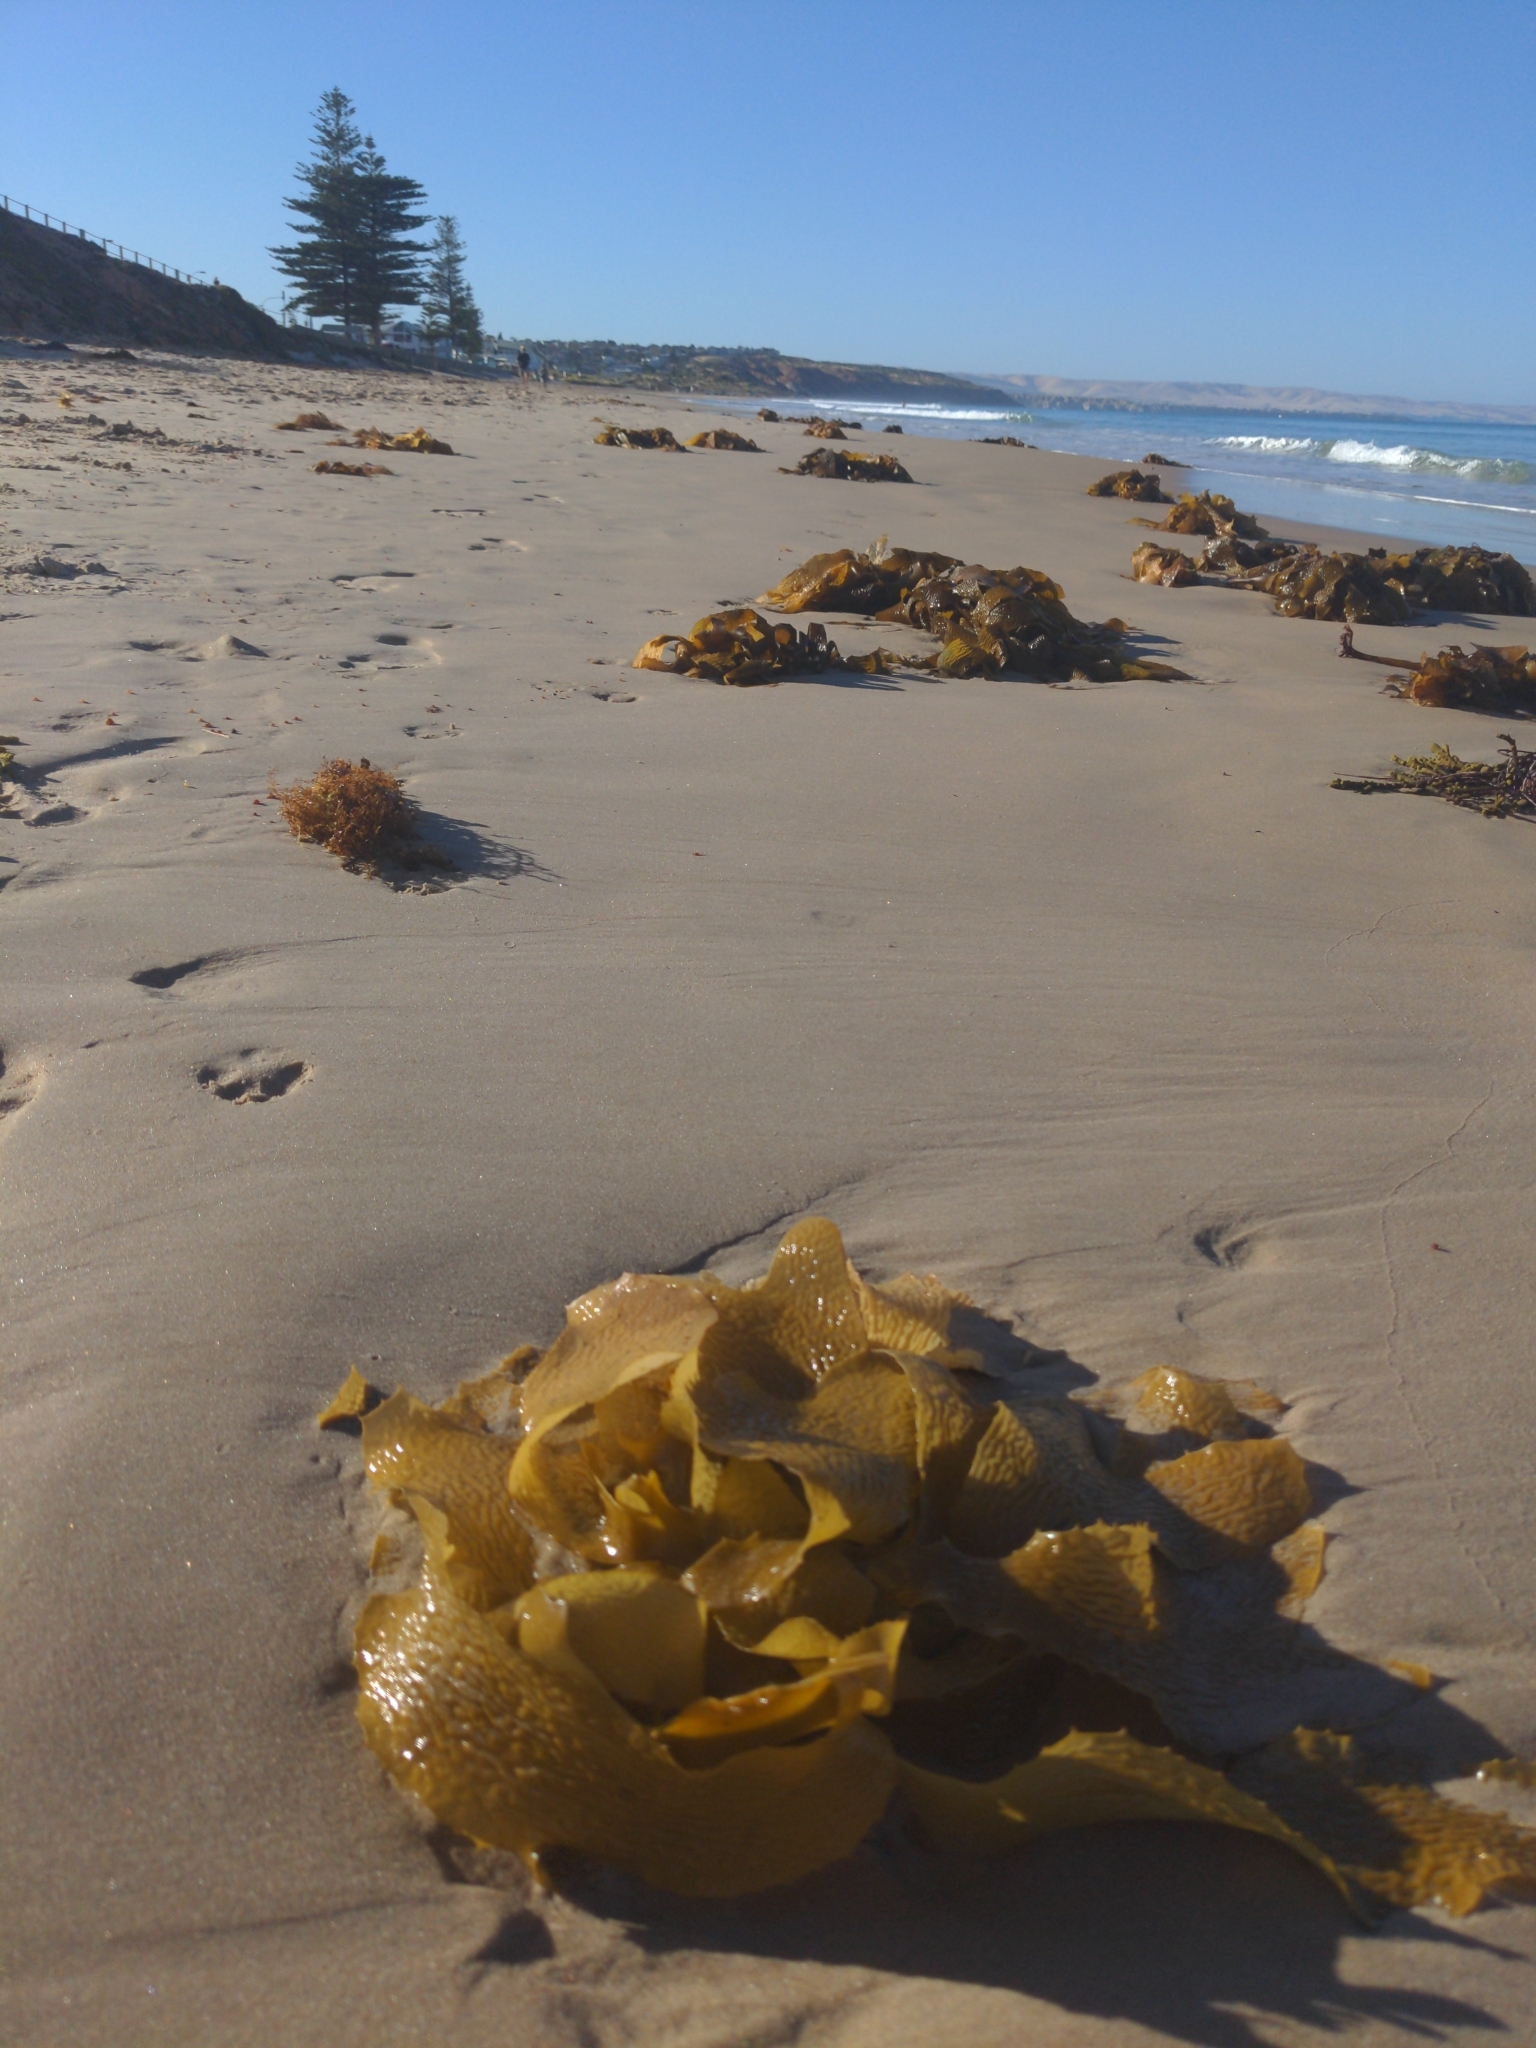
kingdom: Chromista
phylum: Ochrophyta
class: Phaeophyceae
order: Laminariales
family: Lessoniaceae
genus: Ecklonia
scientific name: Ecklonia radiata
